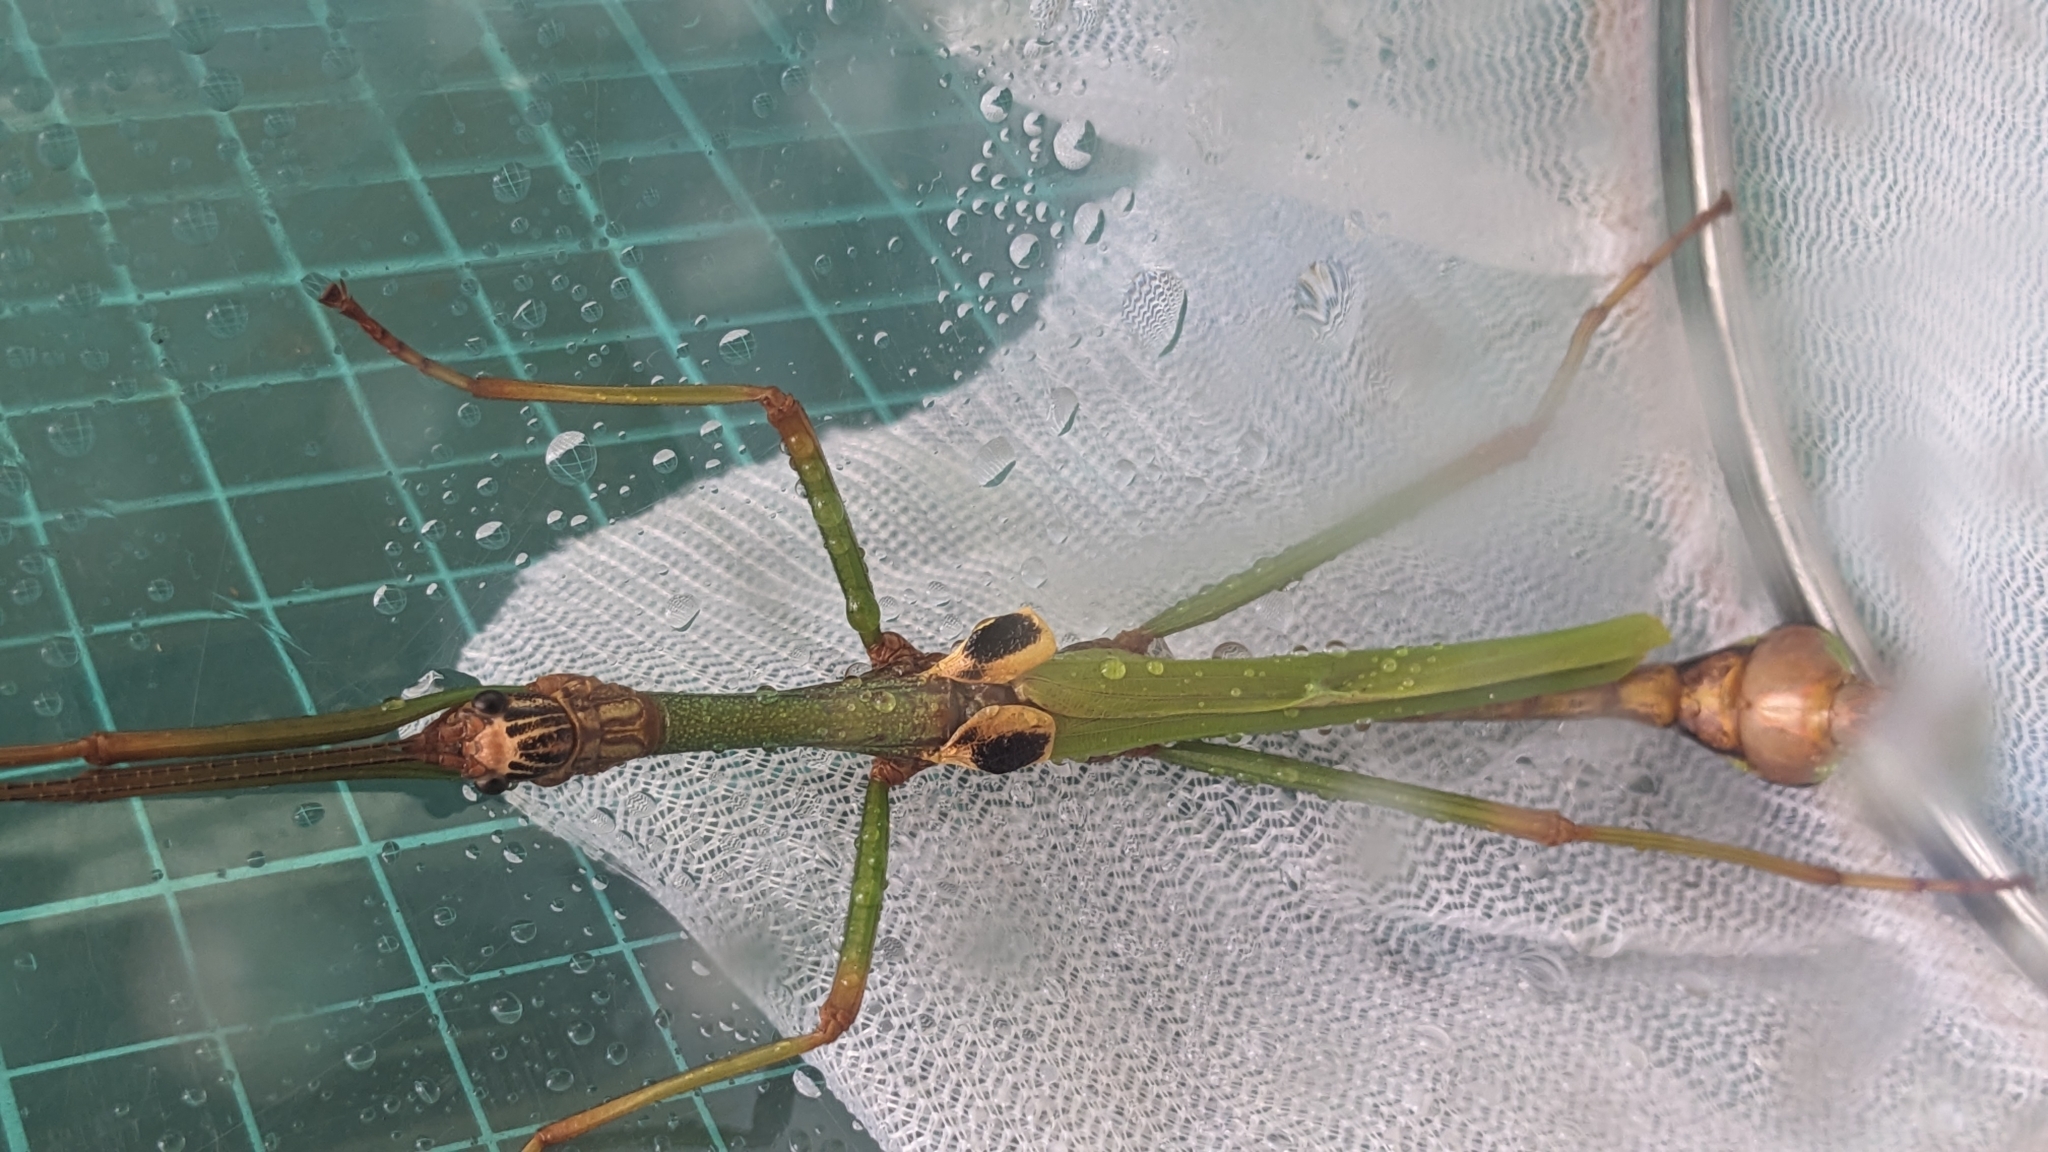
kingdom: Animalia
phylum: Arthropoda
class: Insecta
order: Phasmida
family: Lonchodidae
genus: Sinophasma
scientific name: Sinophasma hoenei
